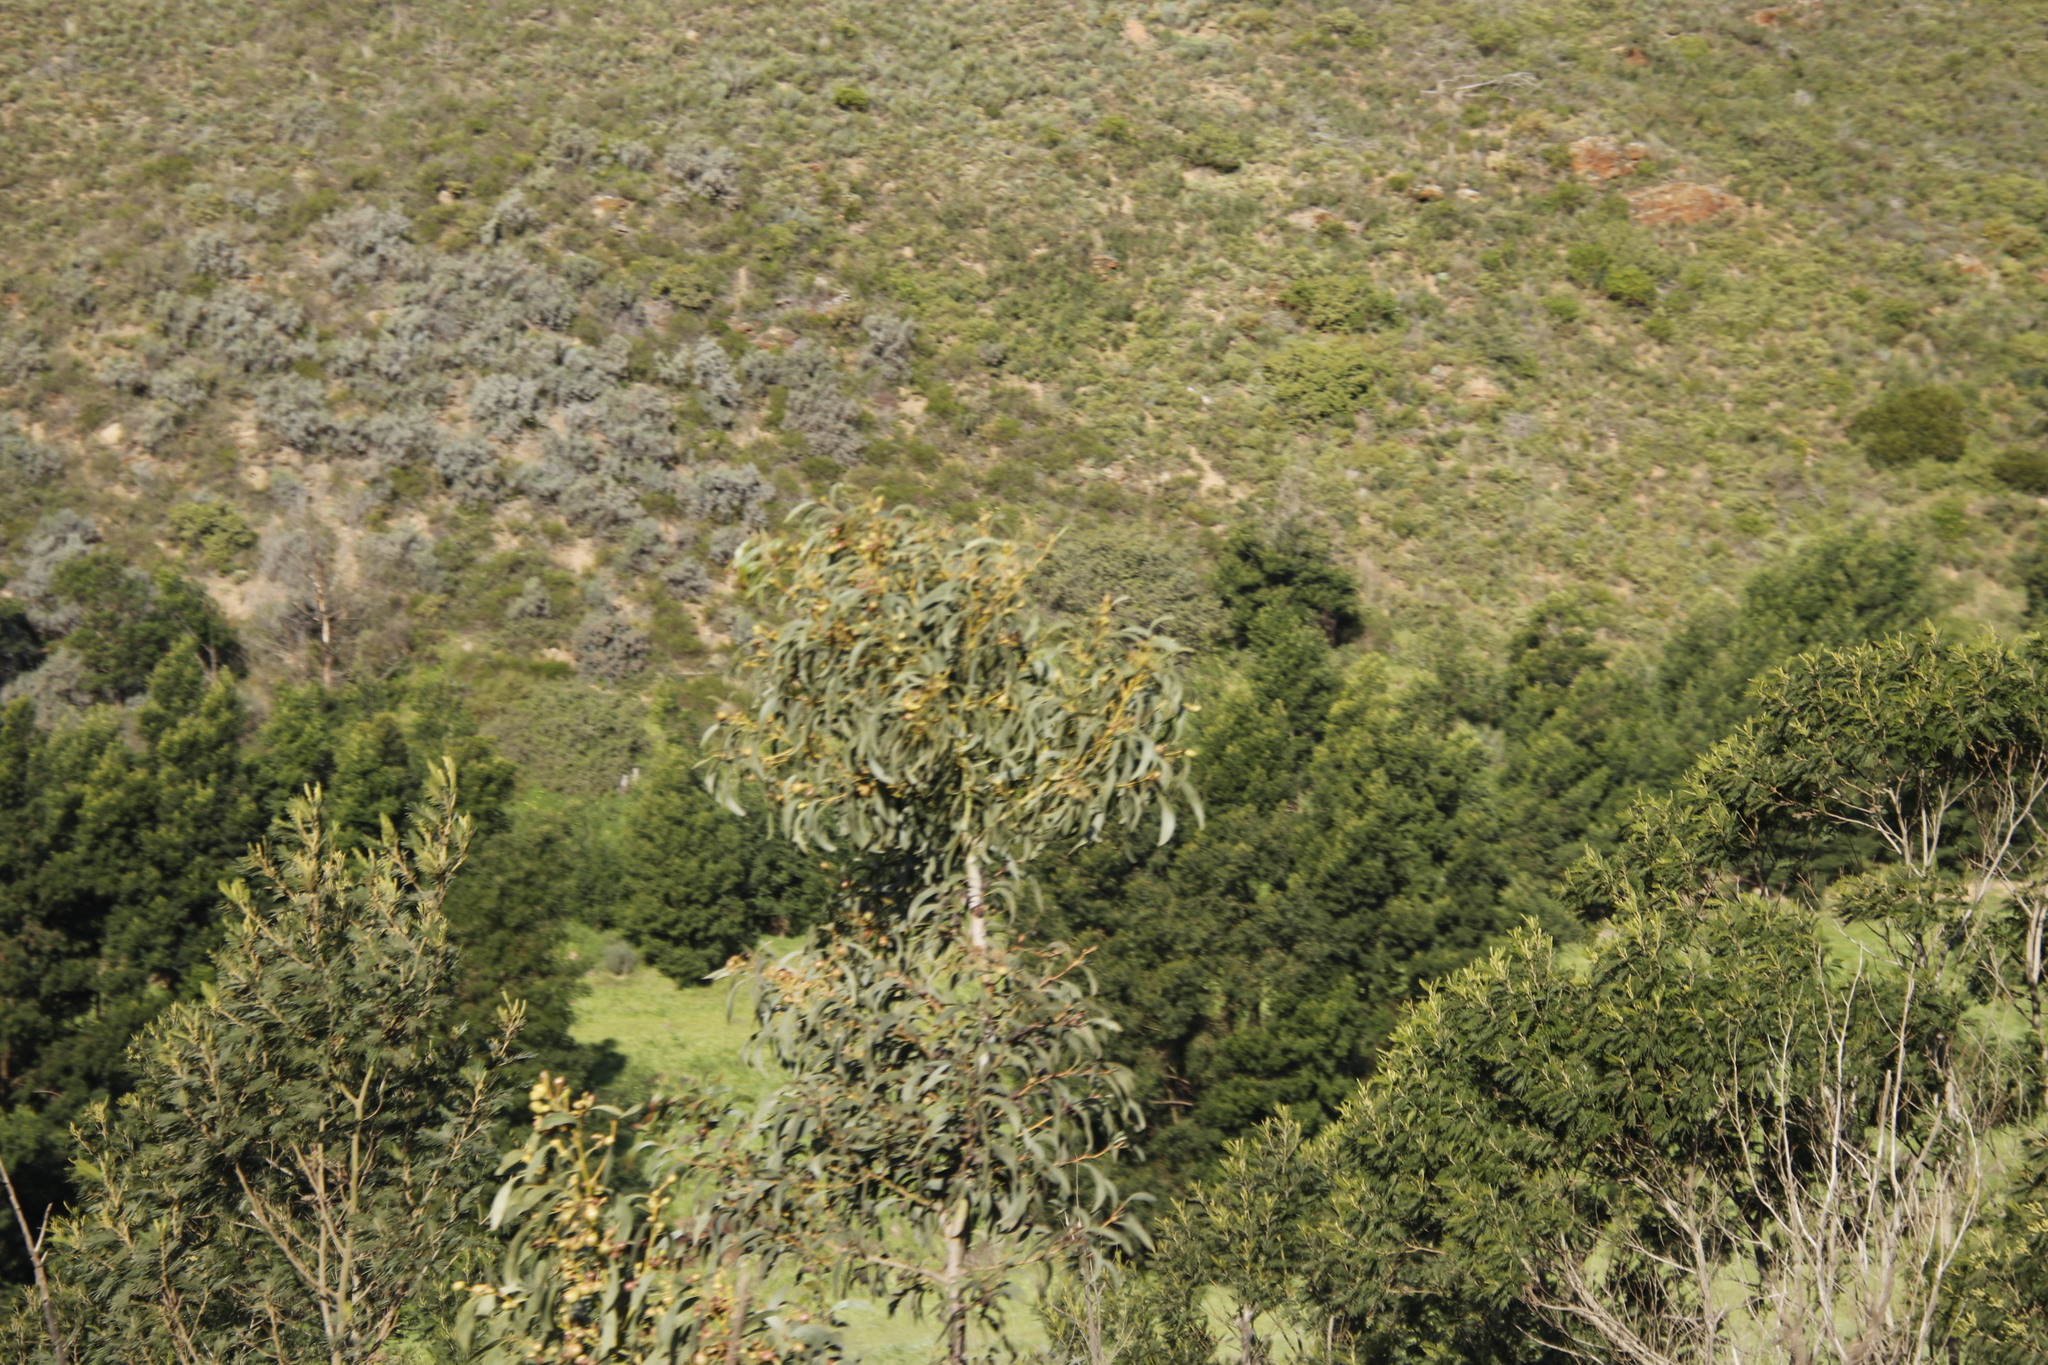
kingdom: Plantae
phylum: Tracheophyta
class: Magnoliopsida
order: Fabales
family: Fabaceae
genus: Acacia
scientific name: Acacia pycnantha
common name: Golden wattle
